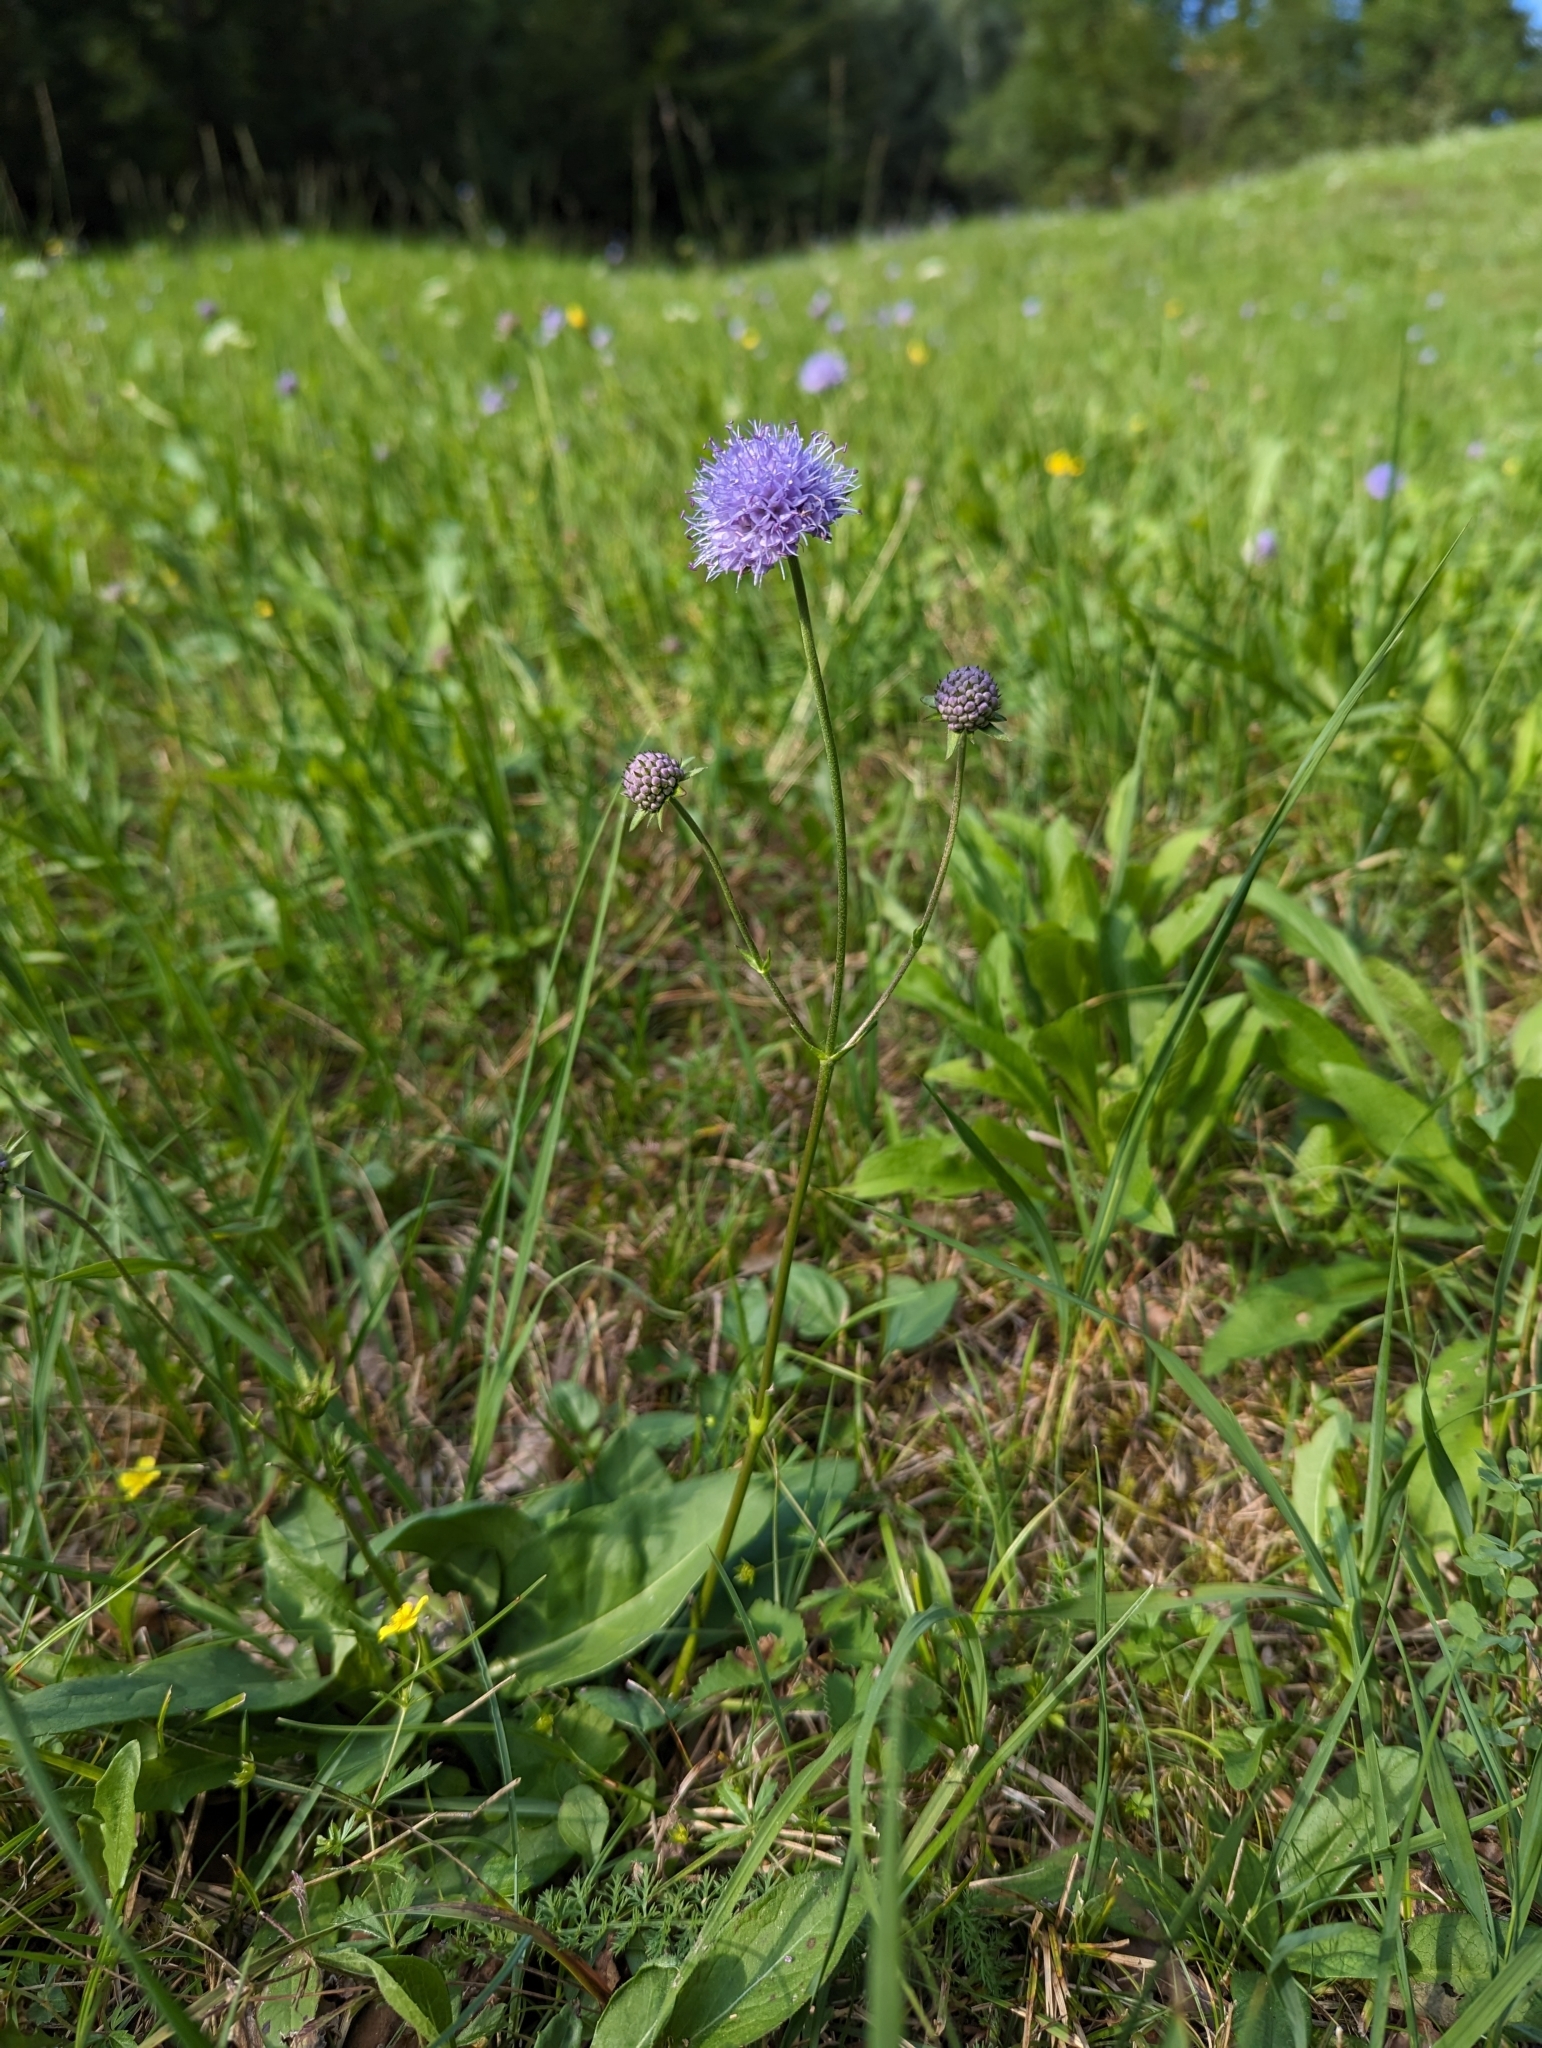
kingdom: Plantae
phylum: Tracheophyta
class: Magnoliopsida
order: Dipsacales
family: Caprifoliaceae
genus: Succisa
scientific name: Succisa pratensis
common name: Devil's-bit
